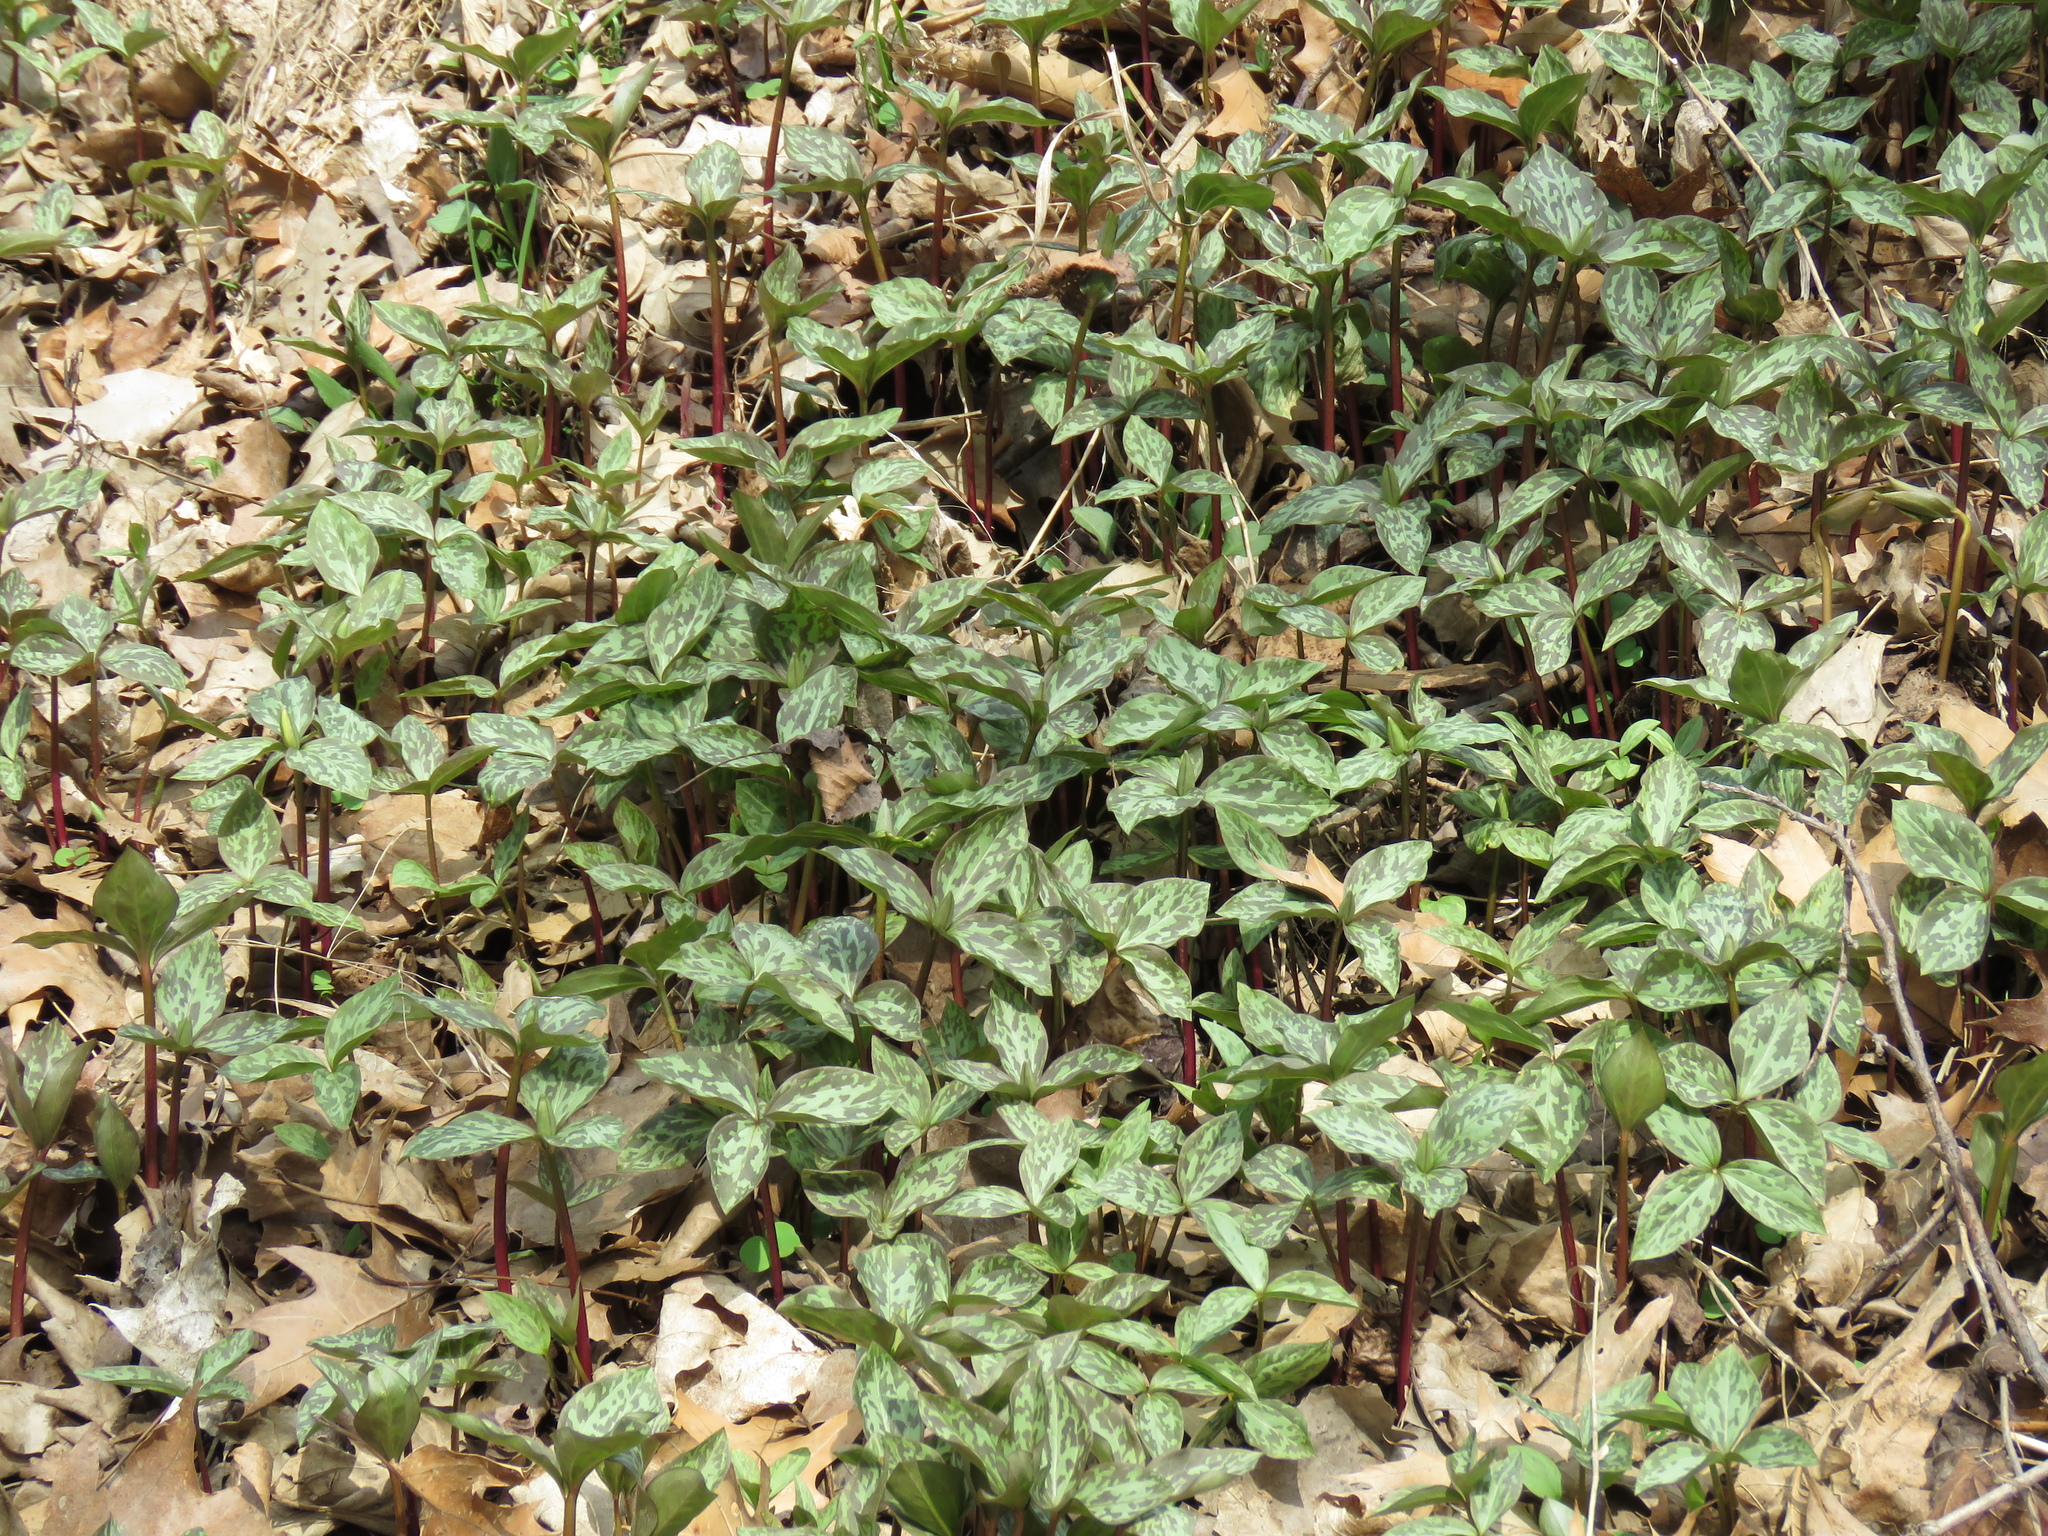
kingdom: Plantae
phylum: Tracheophyta
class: Liliopsida
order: Liliales
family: Melanthiaceae
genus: Trillium
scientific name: Trillium recurvatum
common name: Bloody butcher
